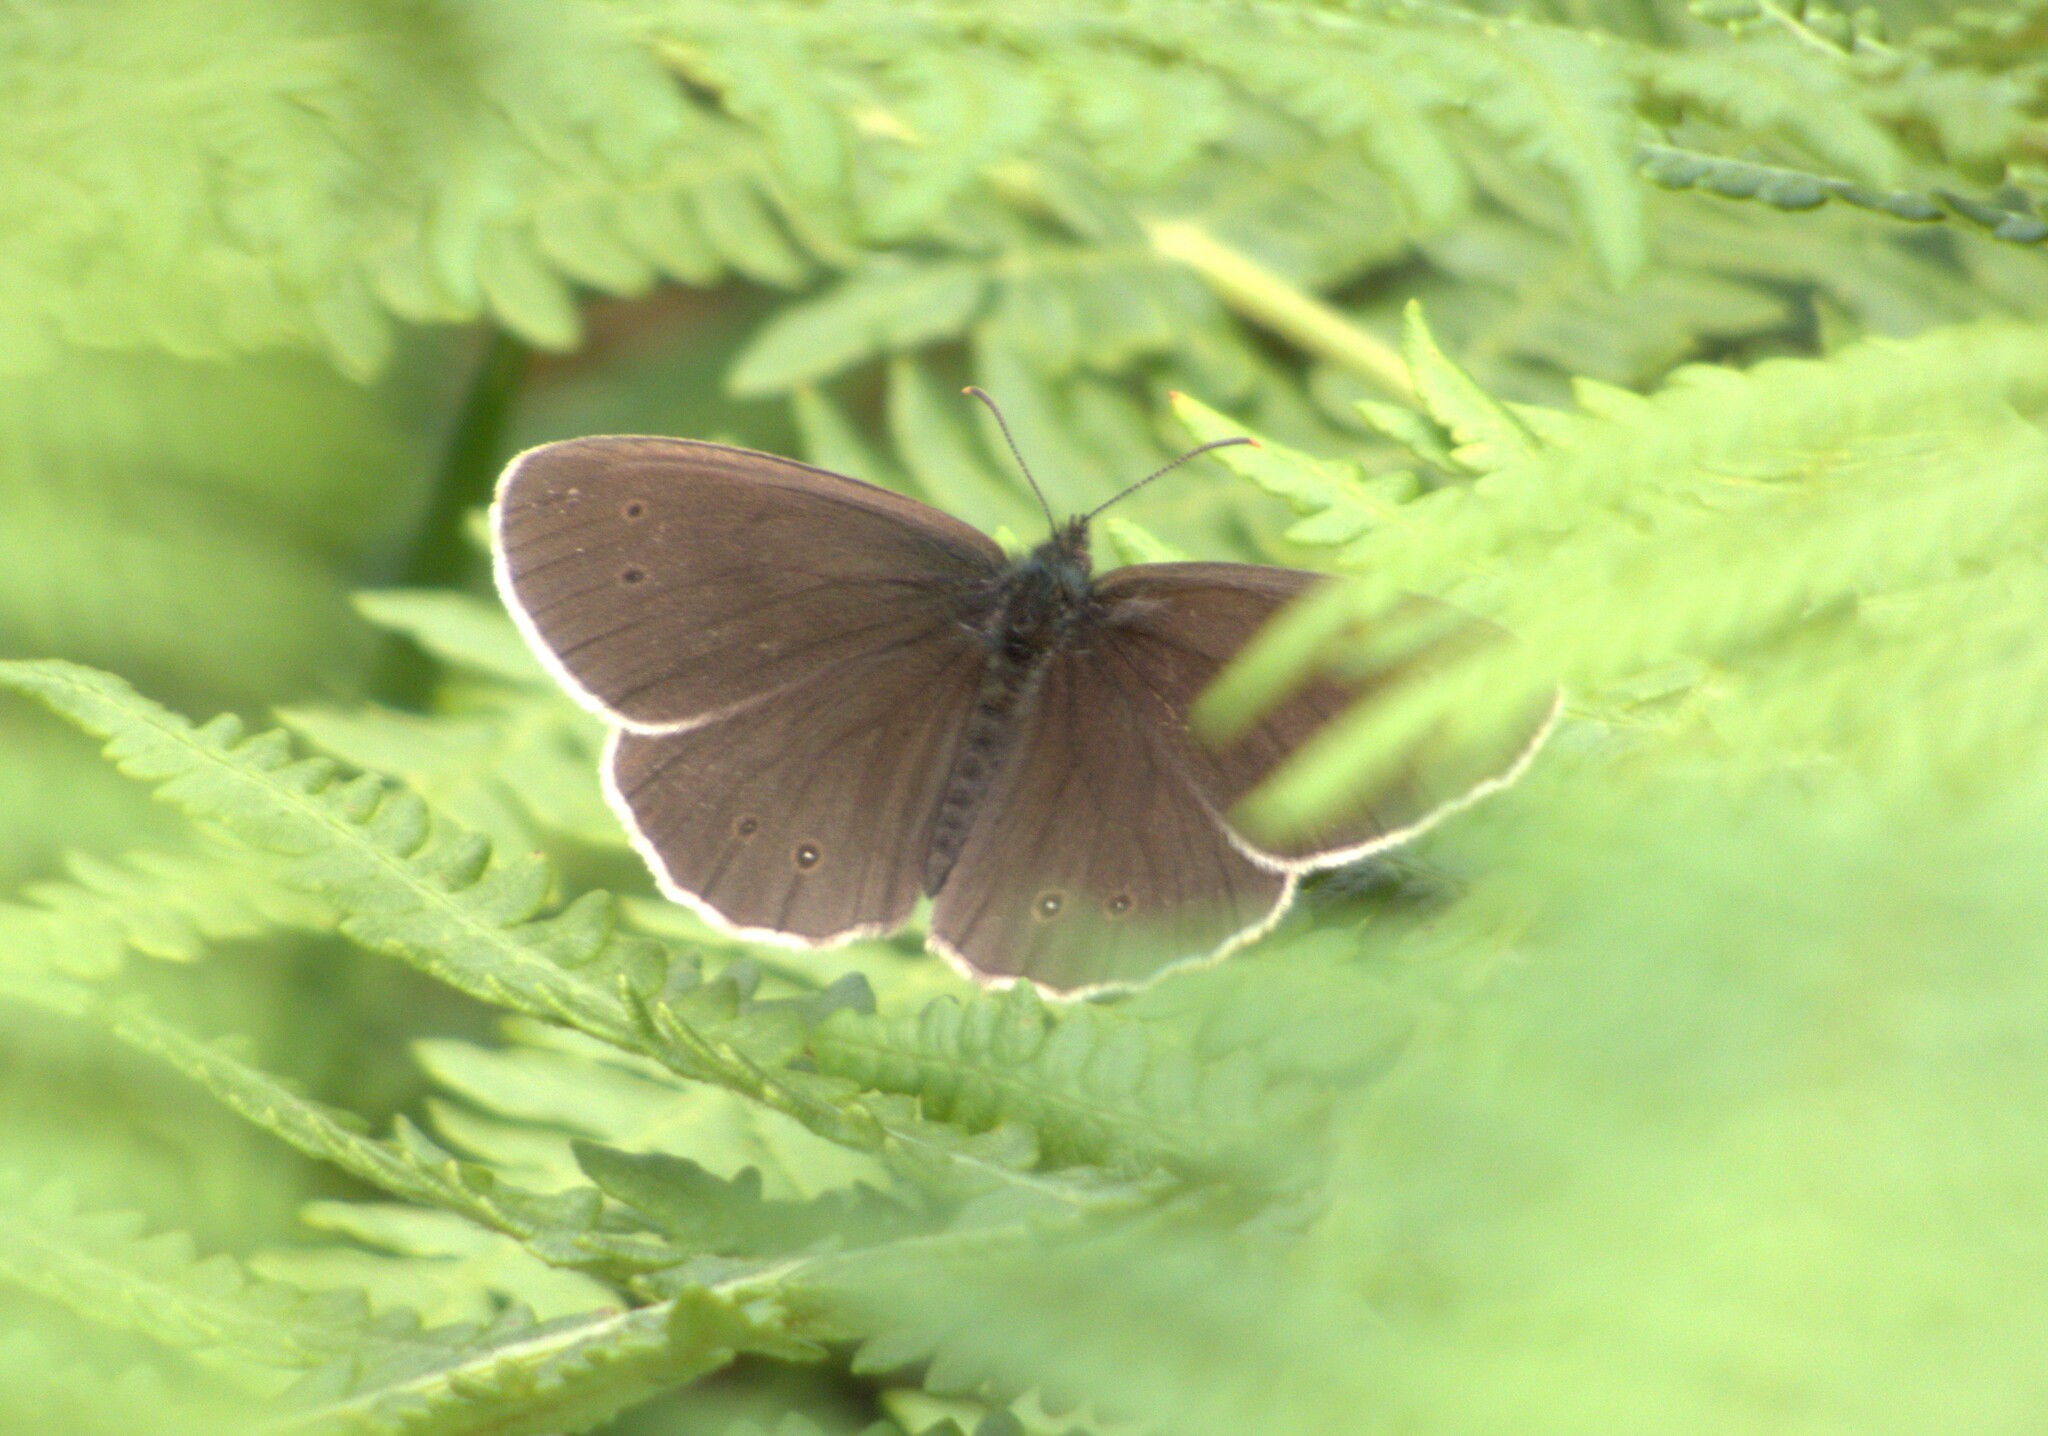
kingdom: Animalia
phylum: Arthropoda
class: Insecta
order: Lepidoptera
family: Nymphalidae
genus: Aphantopus
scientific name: Aphantopus hyperantus
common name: Ringlet
